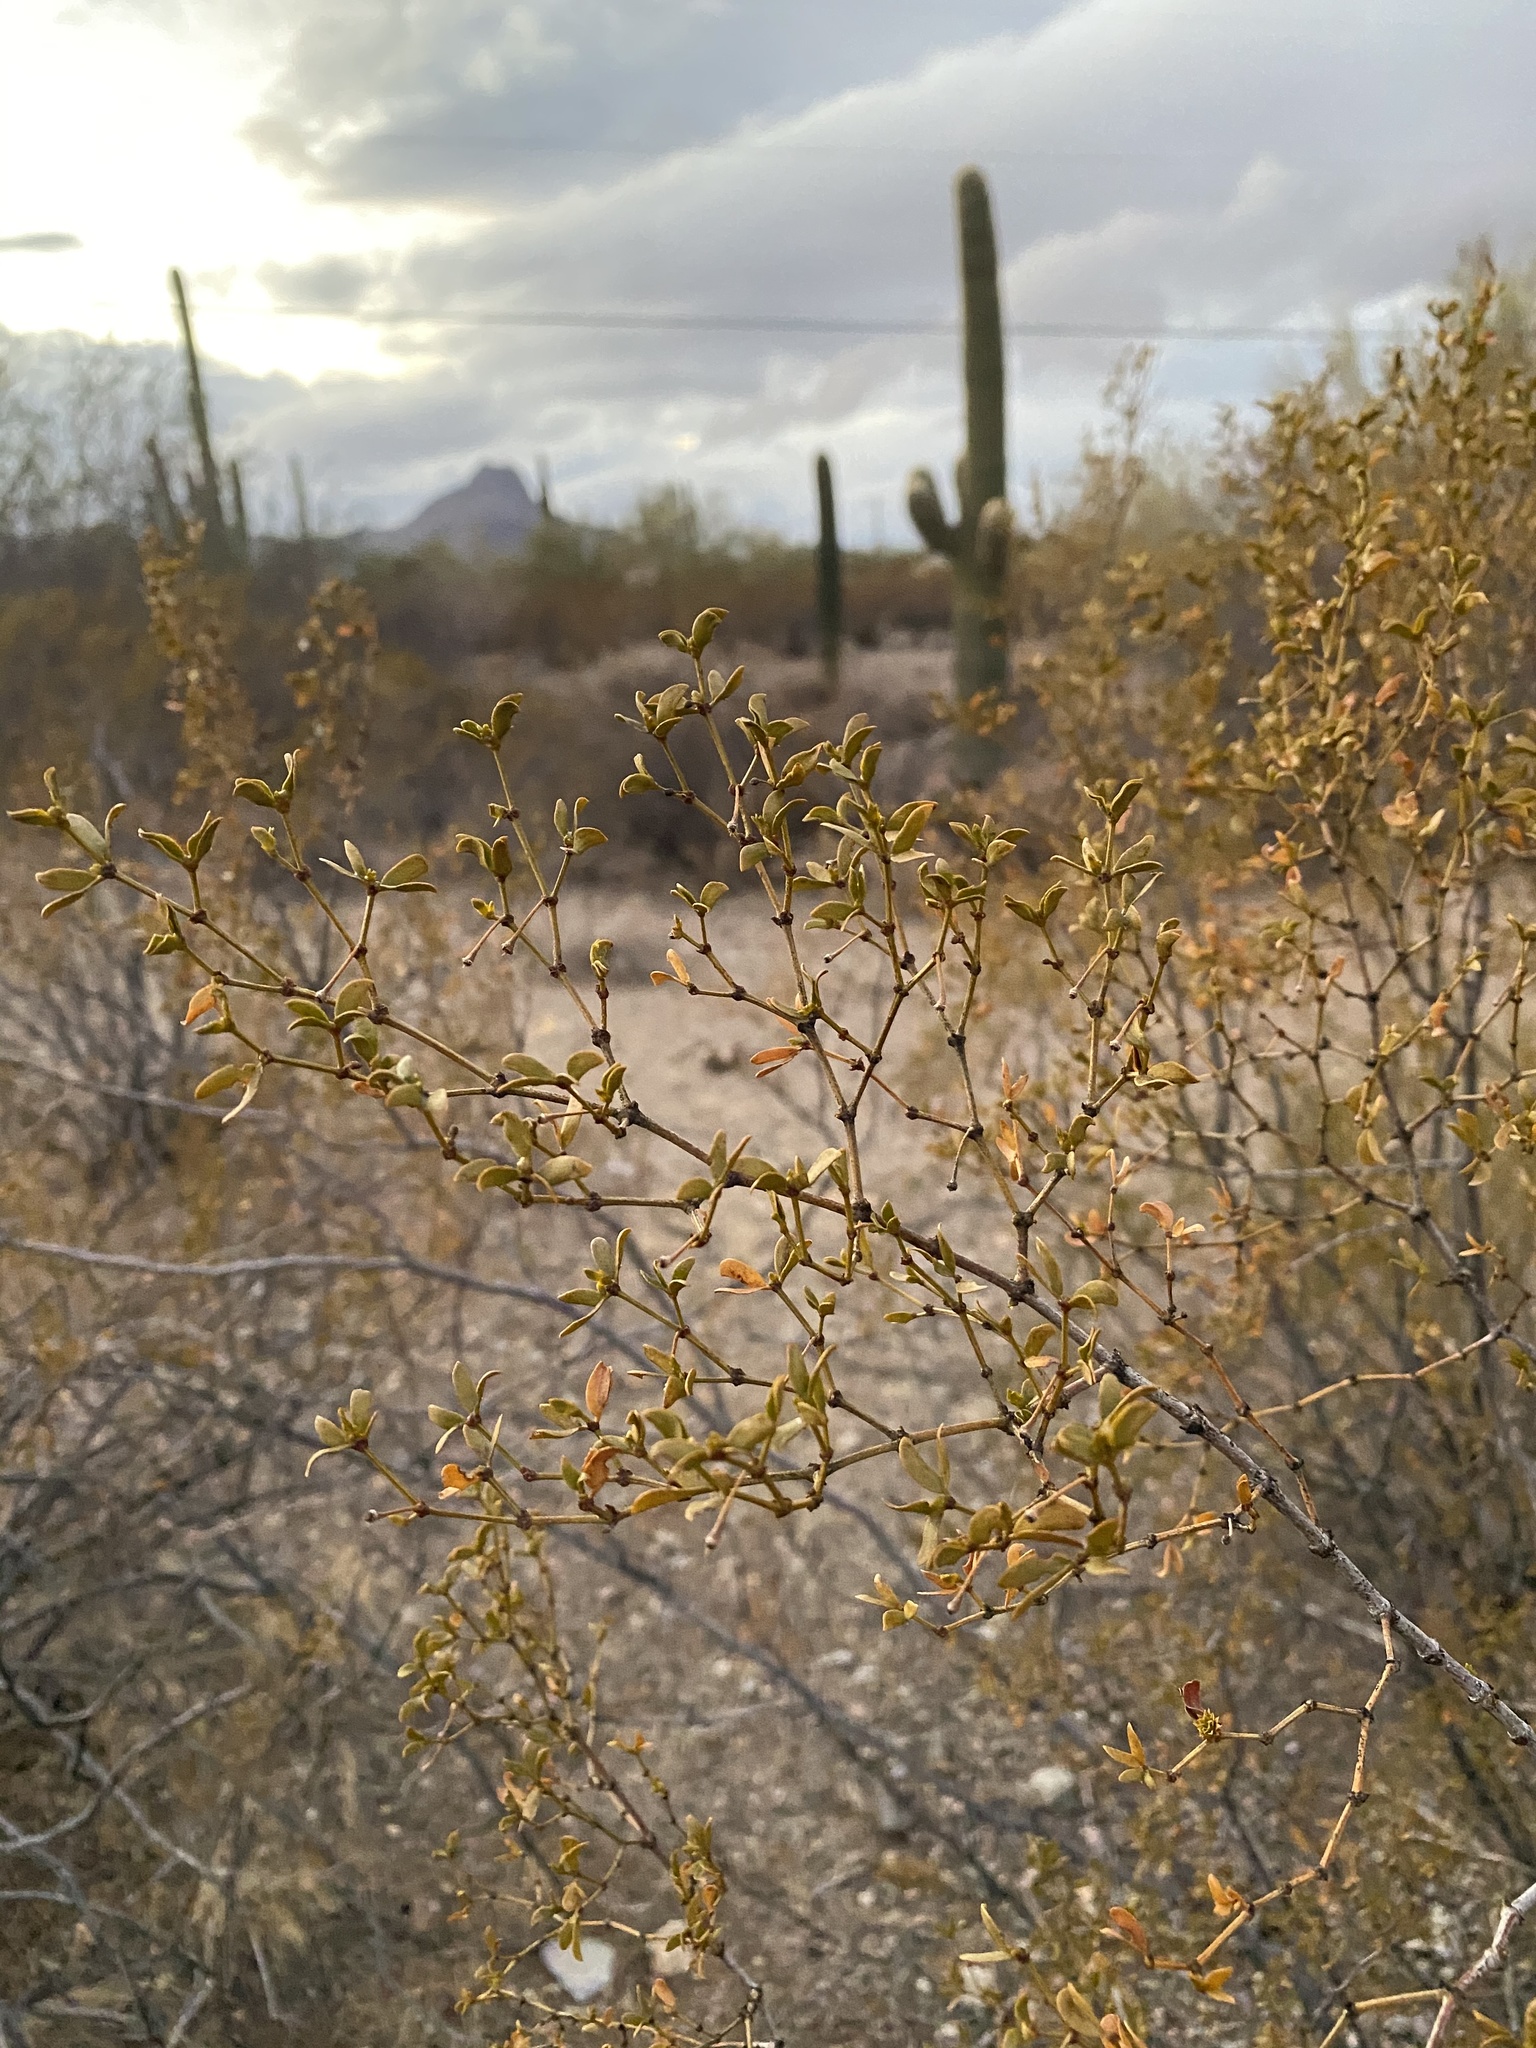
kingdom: Plantae
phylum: Tracheophyta
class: Magnoliopsida
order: Zygophyllales
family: Zygophyllaceae
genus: Larrea
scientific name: Larrea tridentata
